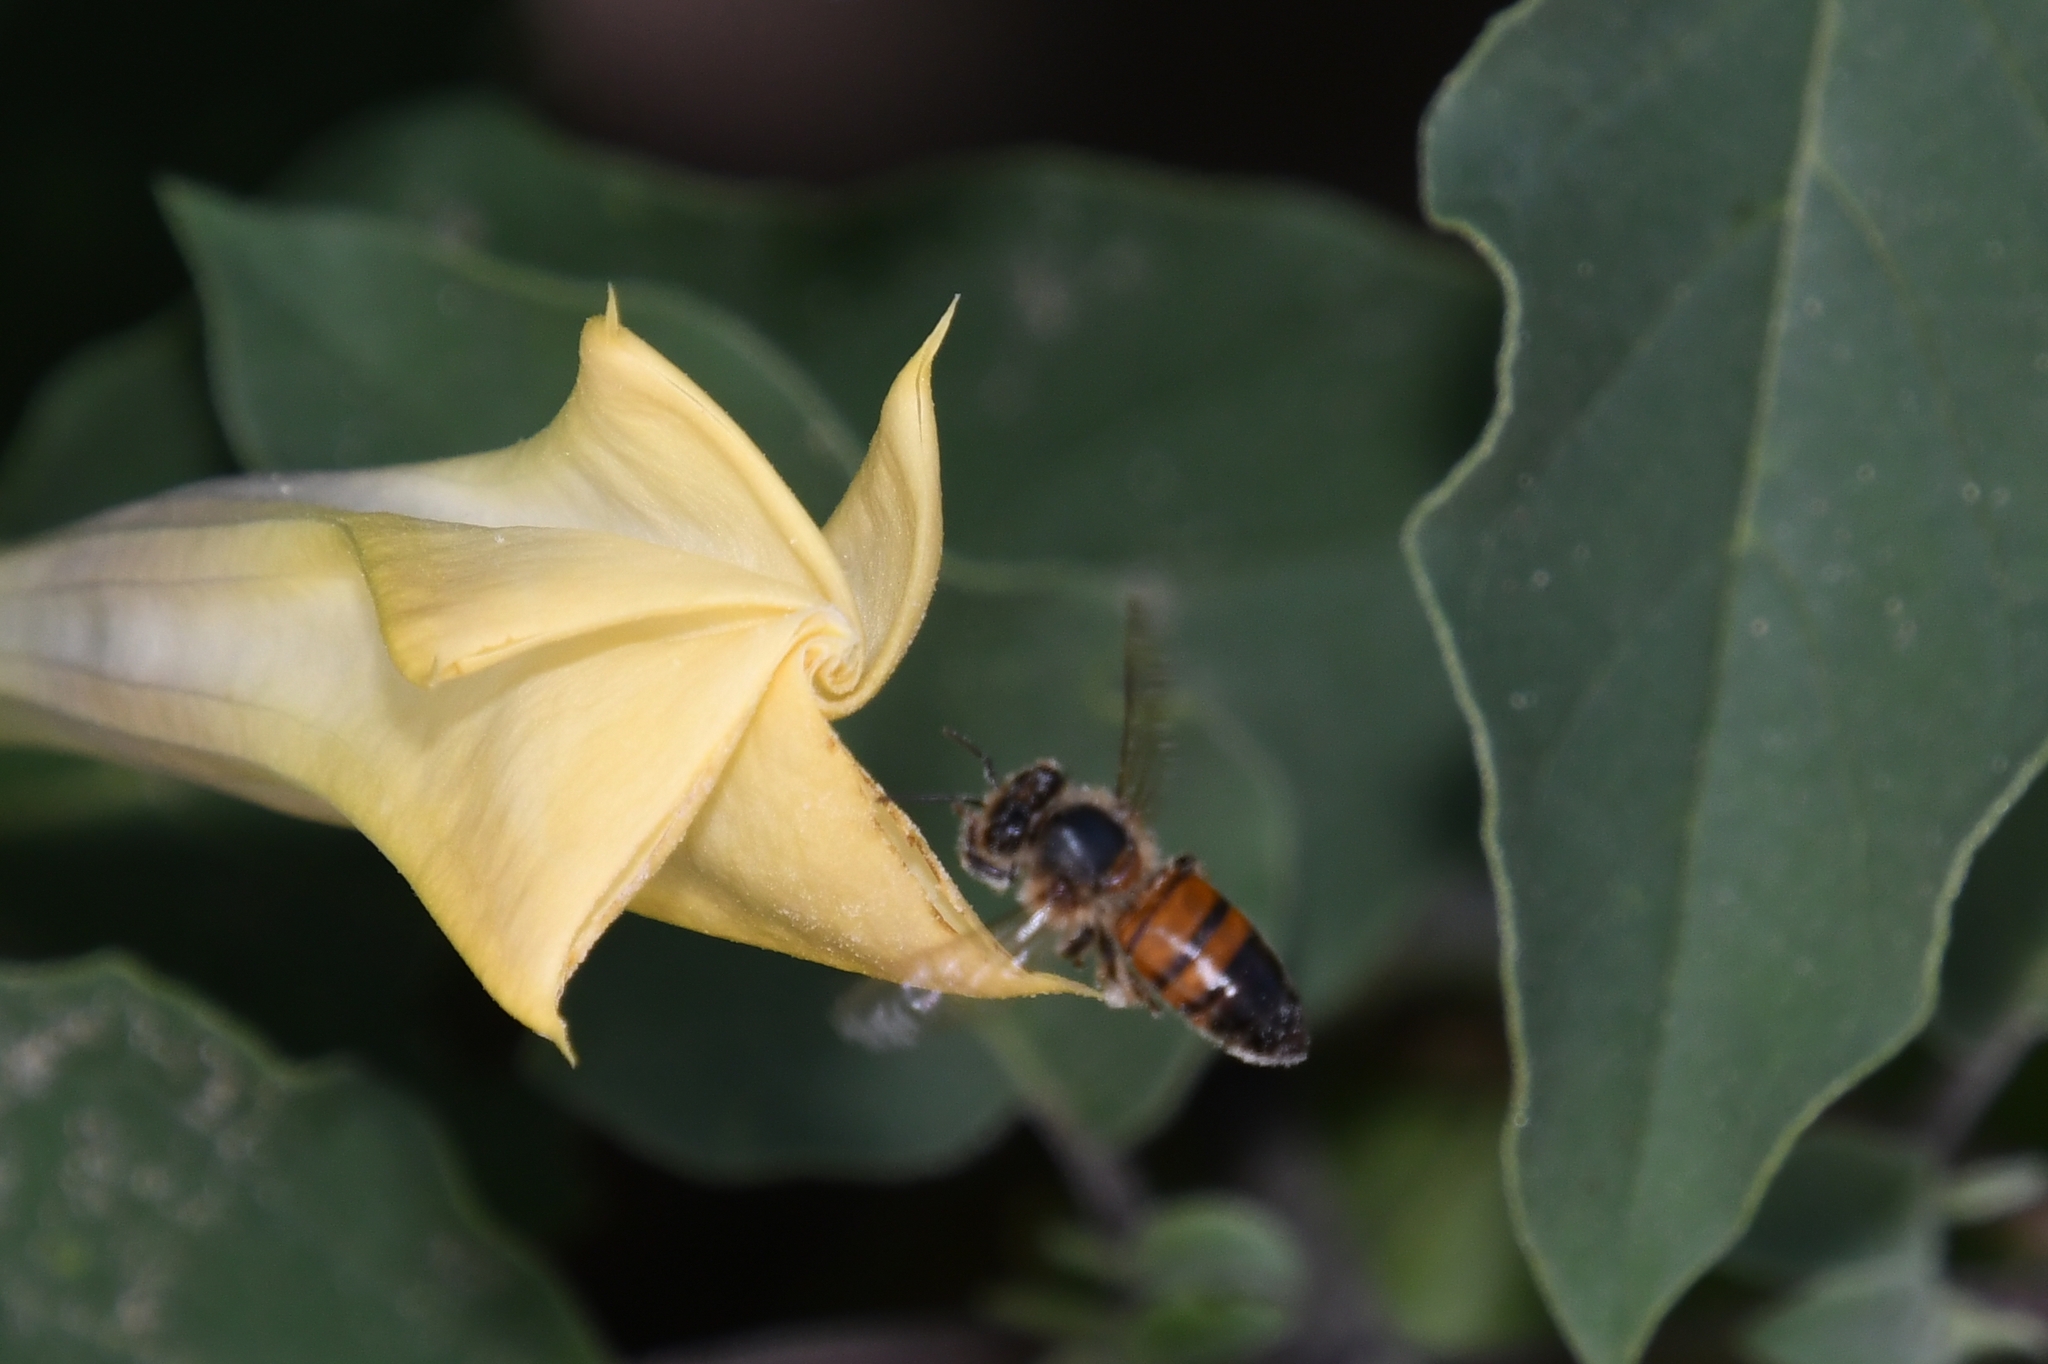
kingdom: Animalia
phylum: Arthropoda
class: Insecta
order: Hymenoptera
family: Apidae
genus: Apis
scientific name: Apis mellifera
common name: Honey bee
